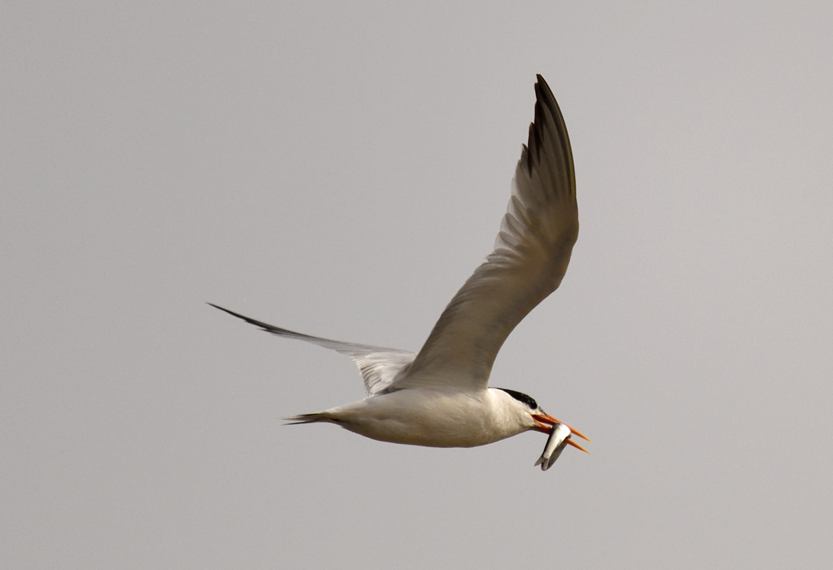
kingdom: Animalia
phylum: Chordata
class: Aves
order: Charadriiformes
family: Laridae
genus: Thalasseus
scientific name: Thalasseus elegans
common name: Elegant tern
